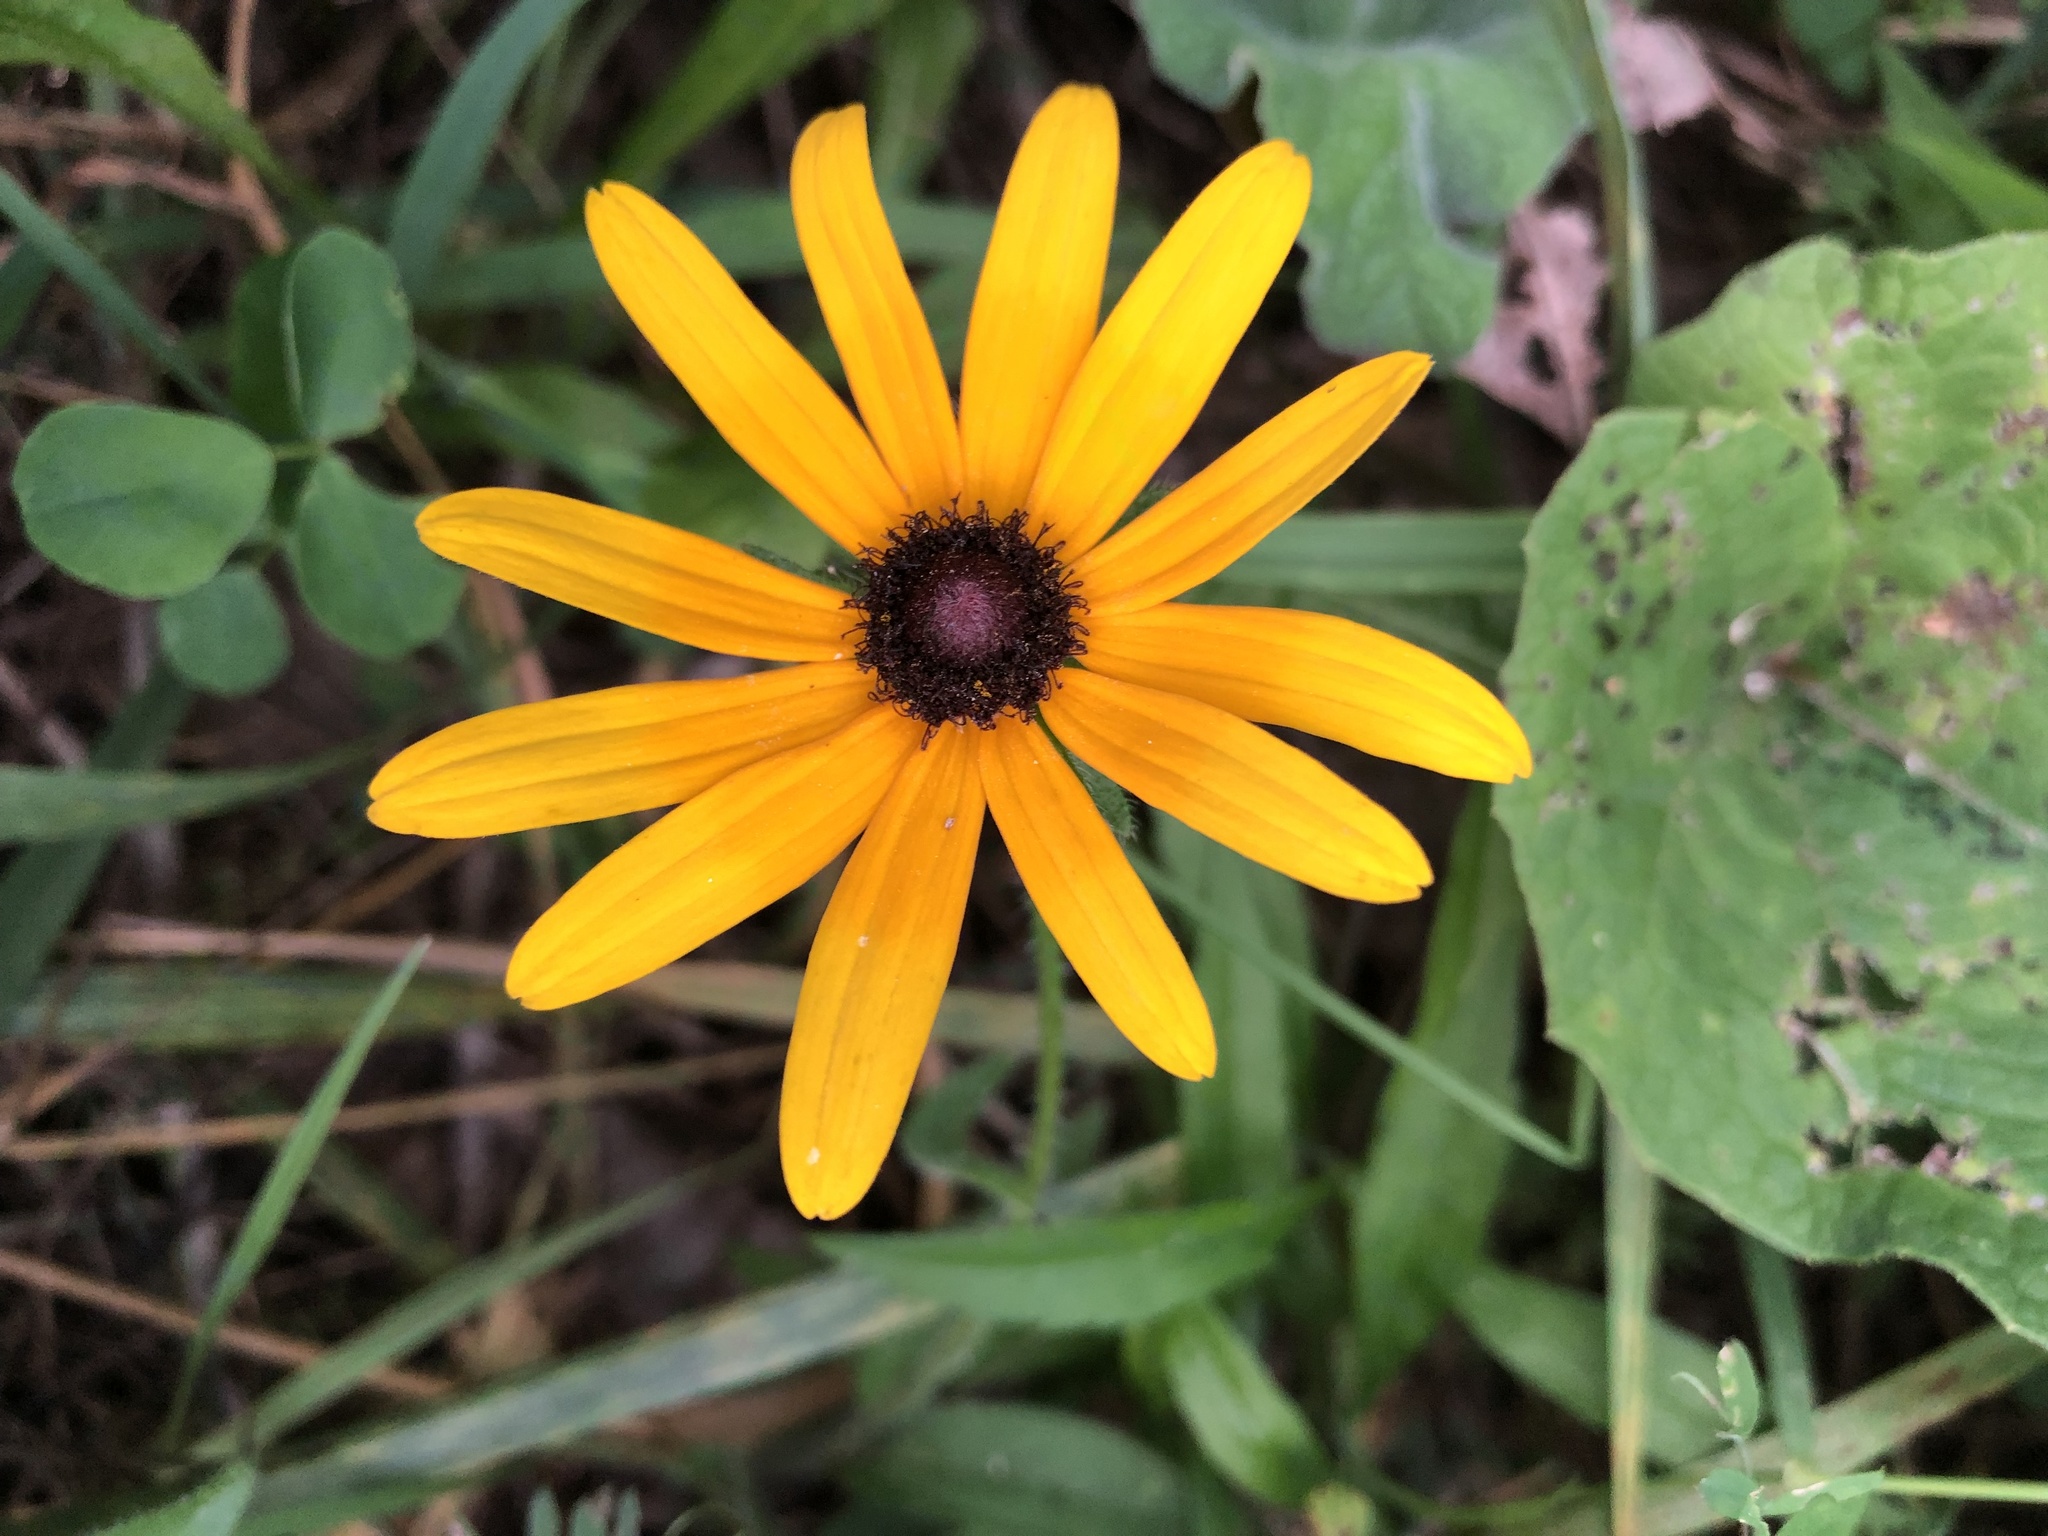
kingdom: Plantae
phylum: Tracheophyta
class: Magnoliopsida
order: Asterales
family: Asteraceae
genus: Rudbeckia
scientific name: Rudbeckia hirta
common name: Black-eyed-susan
